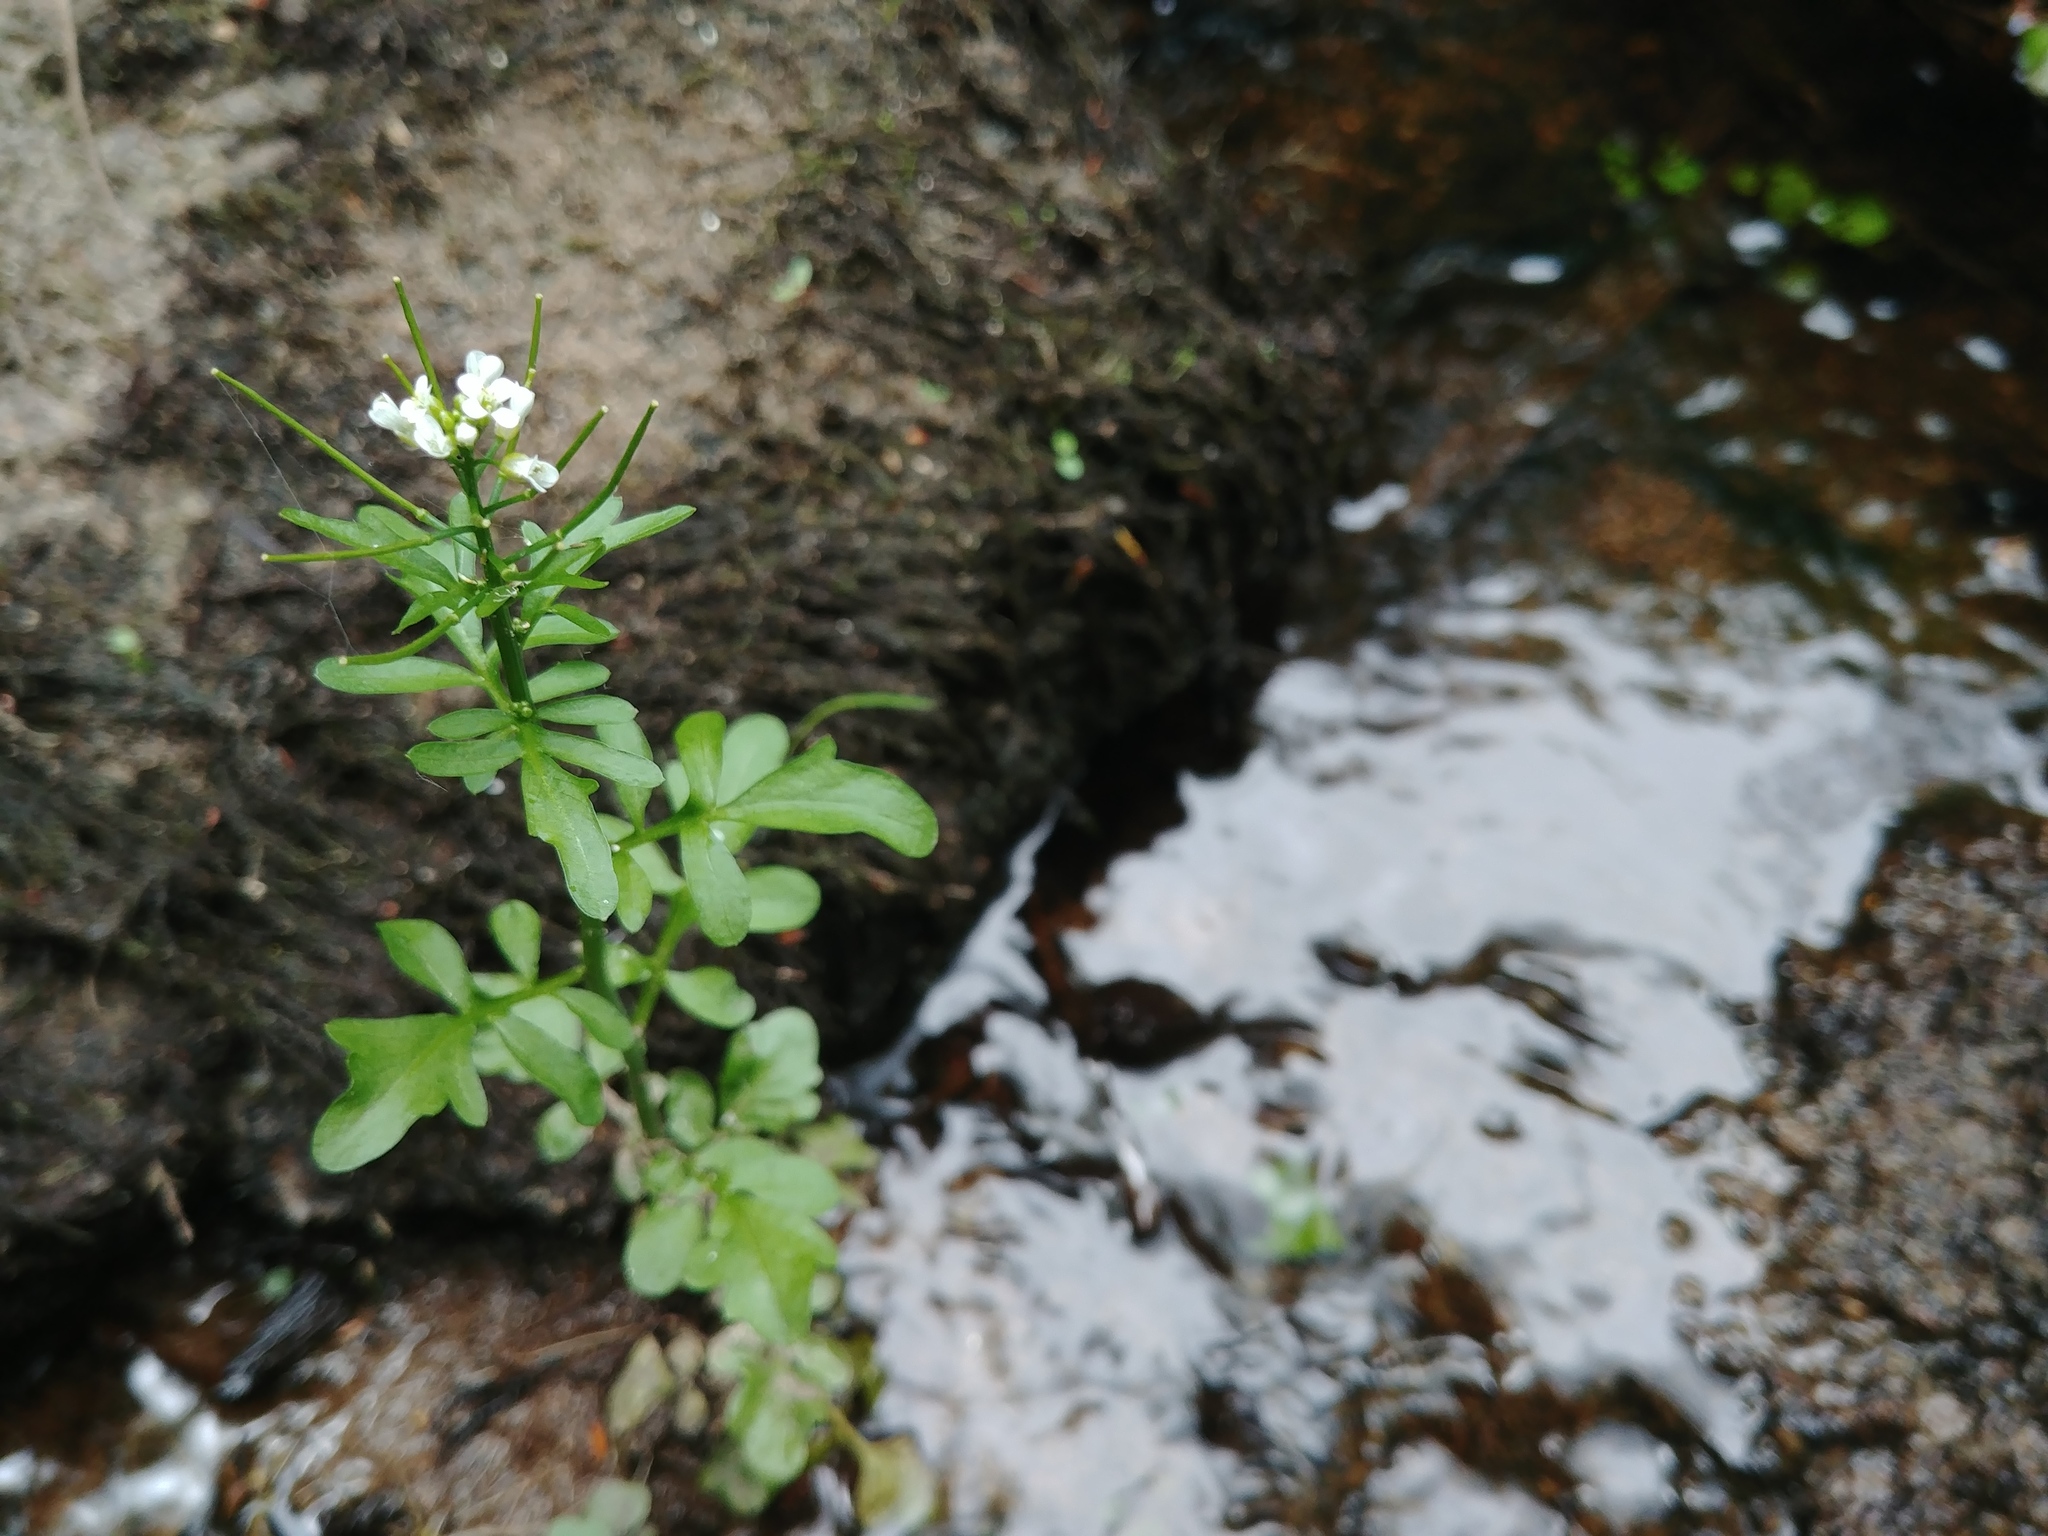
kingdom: Plantae
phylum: Tracheophyta
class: Magnoliopsida
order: Brassicales
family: Brassicaceae
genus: Cardamine
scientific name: Cardamine pensylvanica
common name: Pennsylvania bittercress
